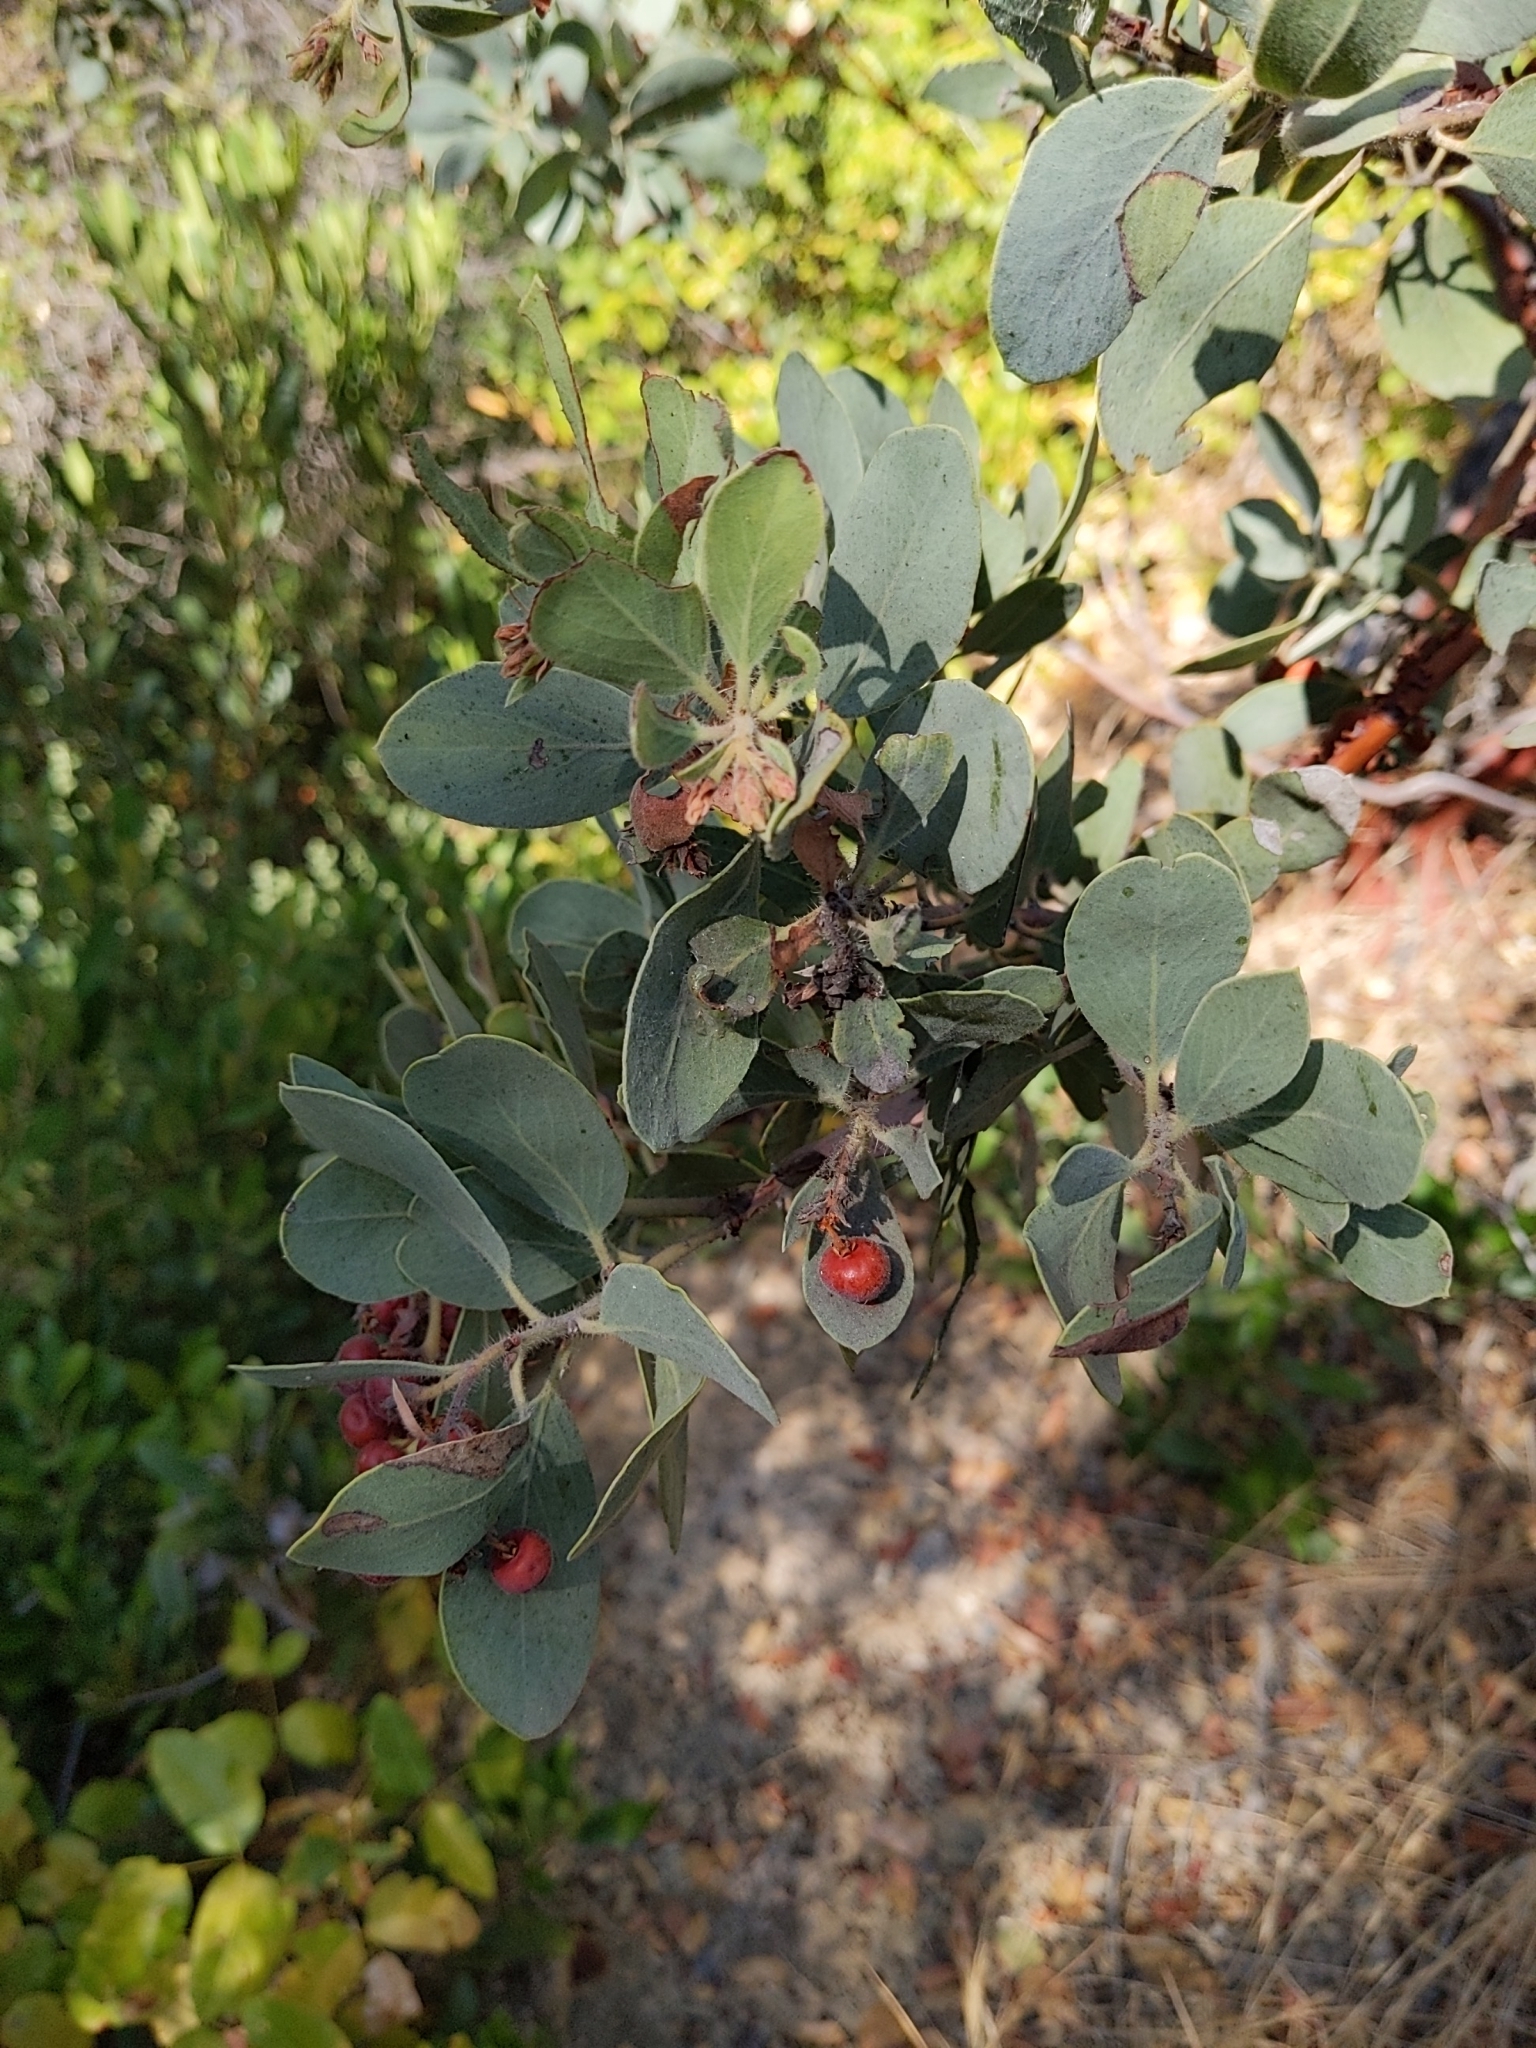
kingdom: Plantae
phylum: Tracheophyta
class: Magnoliopsida
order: Ericales
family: Ericaceae
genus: Arctostaphylos
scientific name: Arctostaphylos glandulosa
